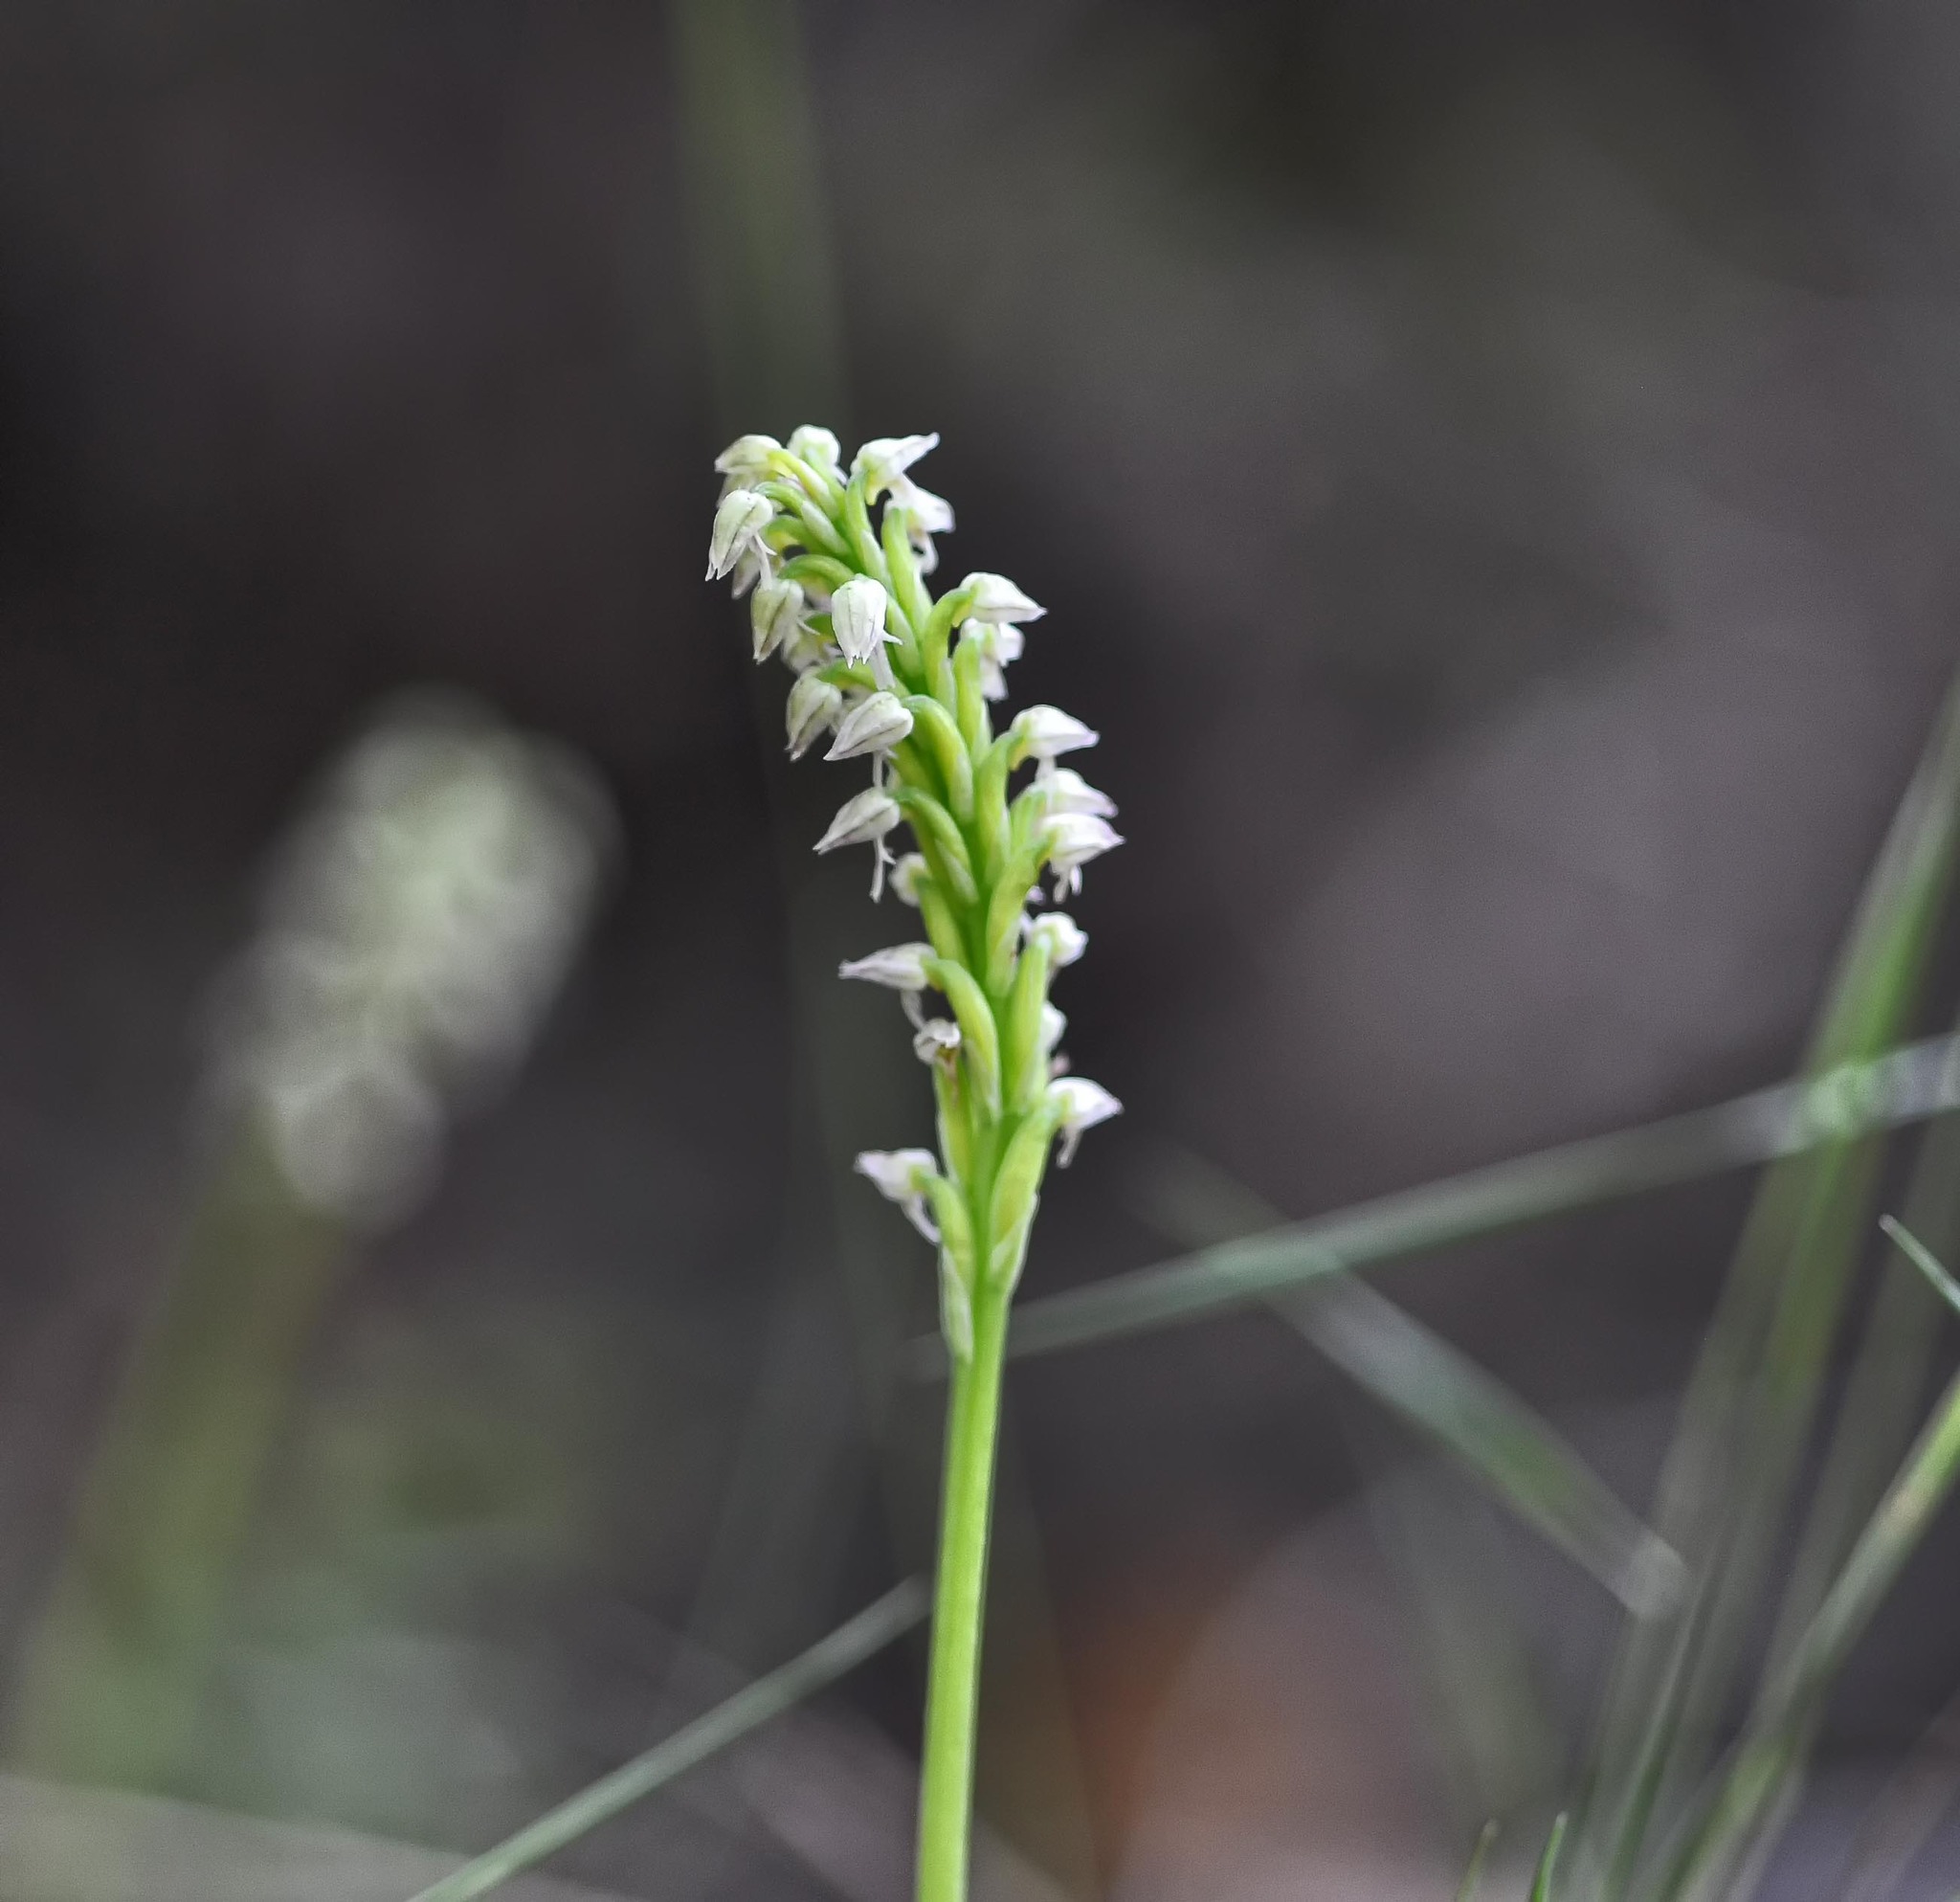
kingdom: Plantae
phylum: Tracheophyta
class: Liliopsida
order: Asparagales
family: Orchidaceae
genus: Neotinea
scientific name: Neotinea maculata
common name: Dense-flowered orchid
